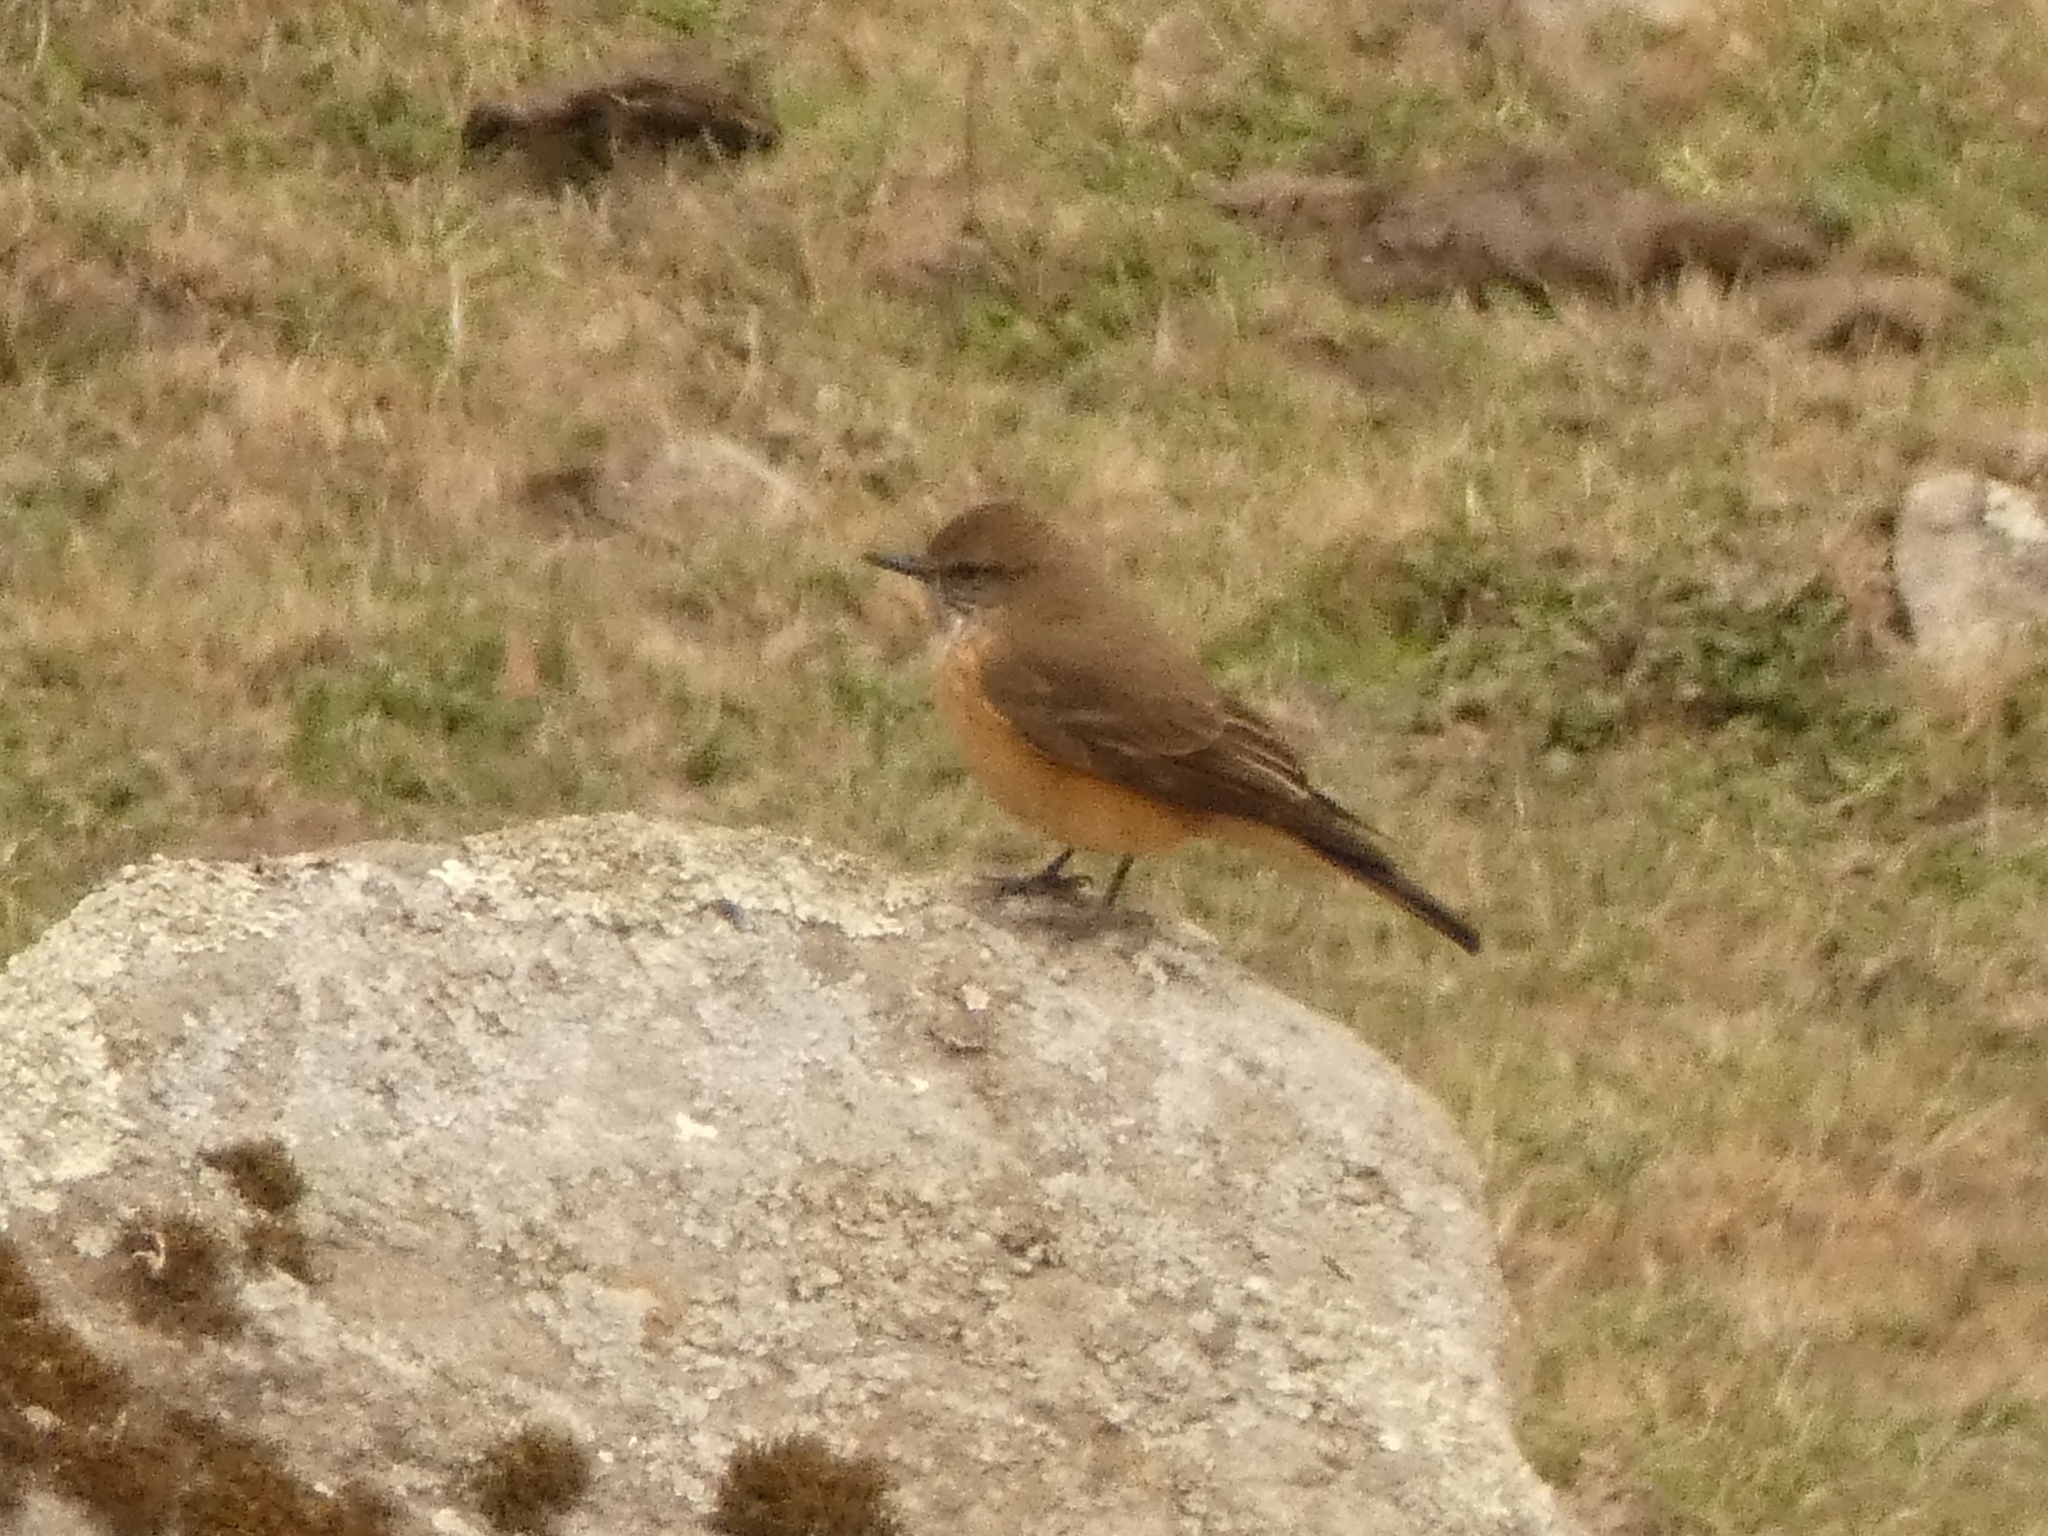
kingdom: Animalia
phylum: Chordata
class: Aves
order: Passeriformes
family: Tyrannidae
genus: Myiotheretes
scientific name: Myiotheretes striaticollis
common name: Streak-throated bush tyrant
